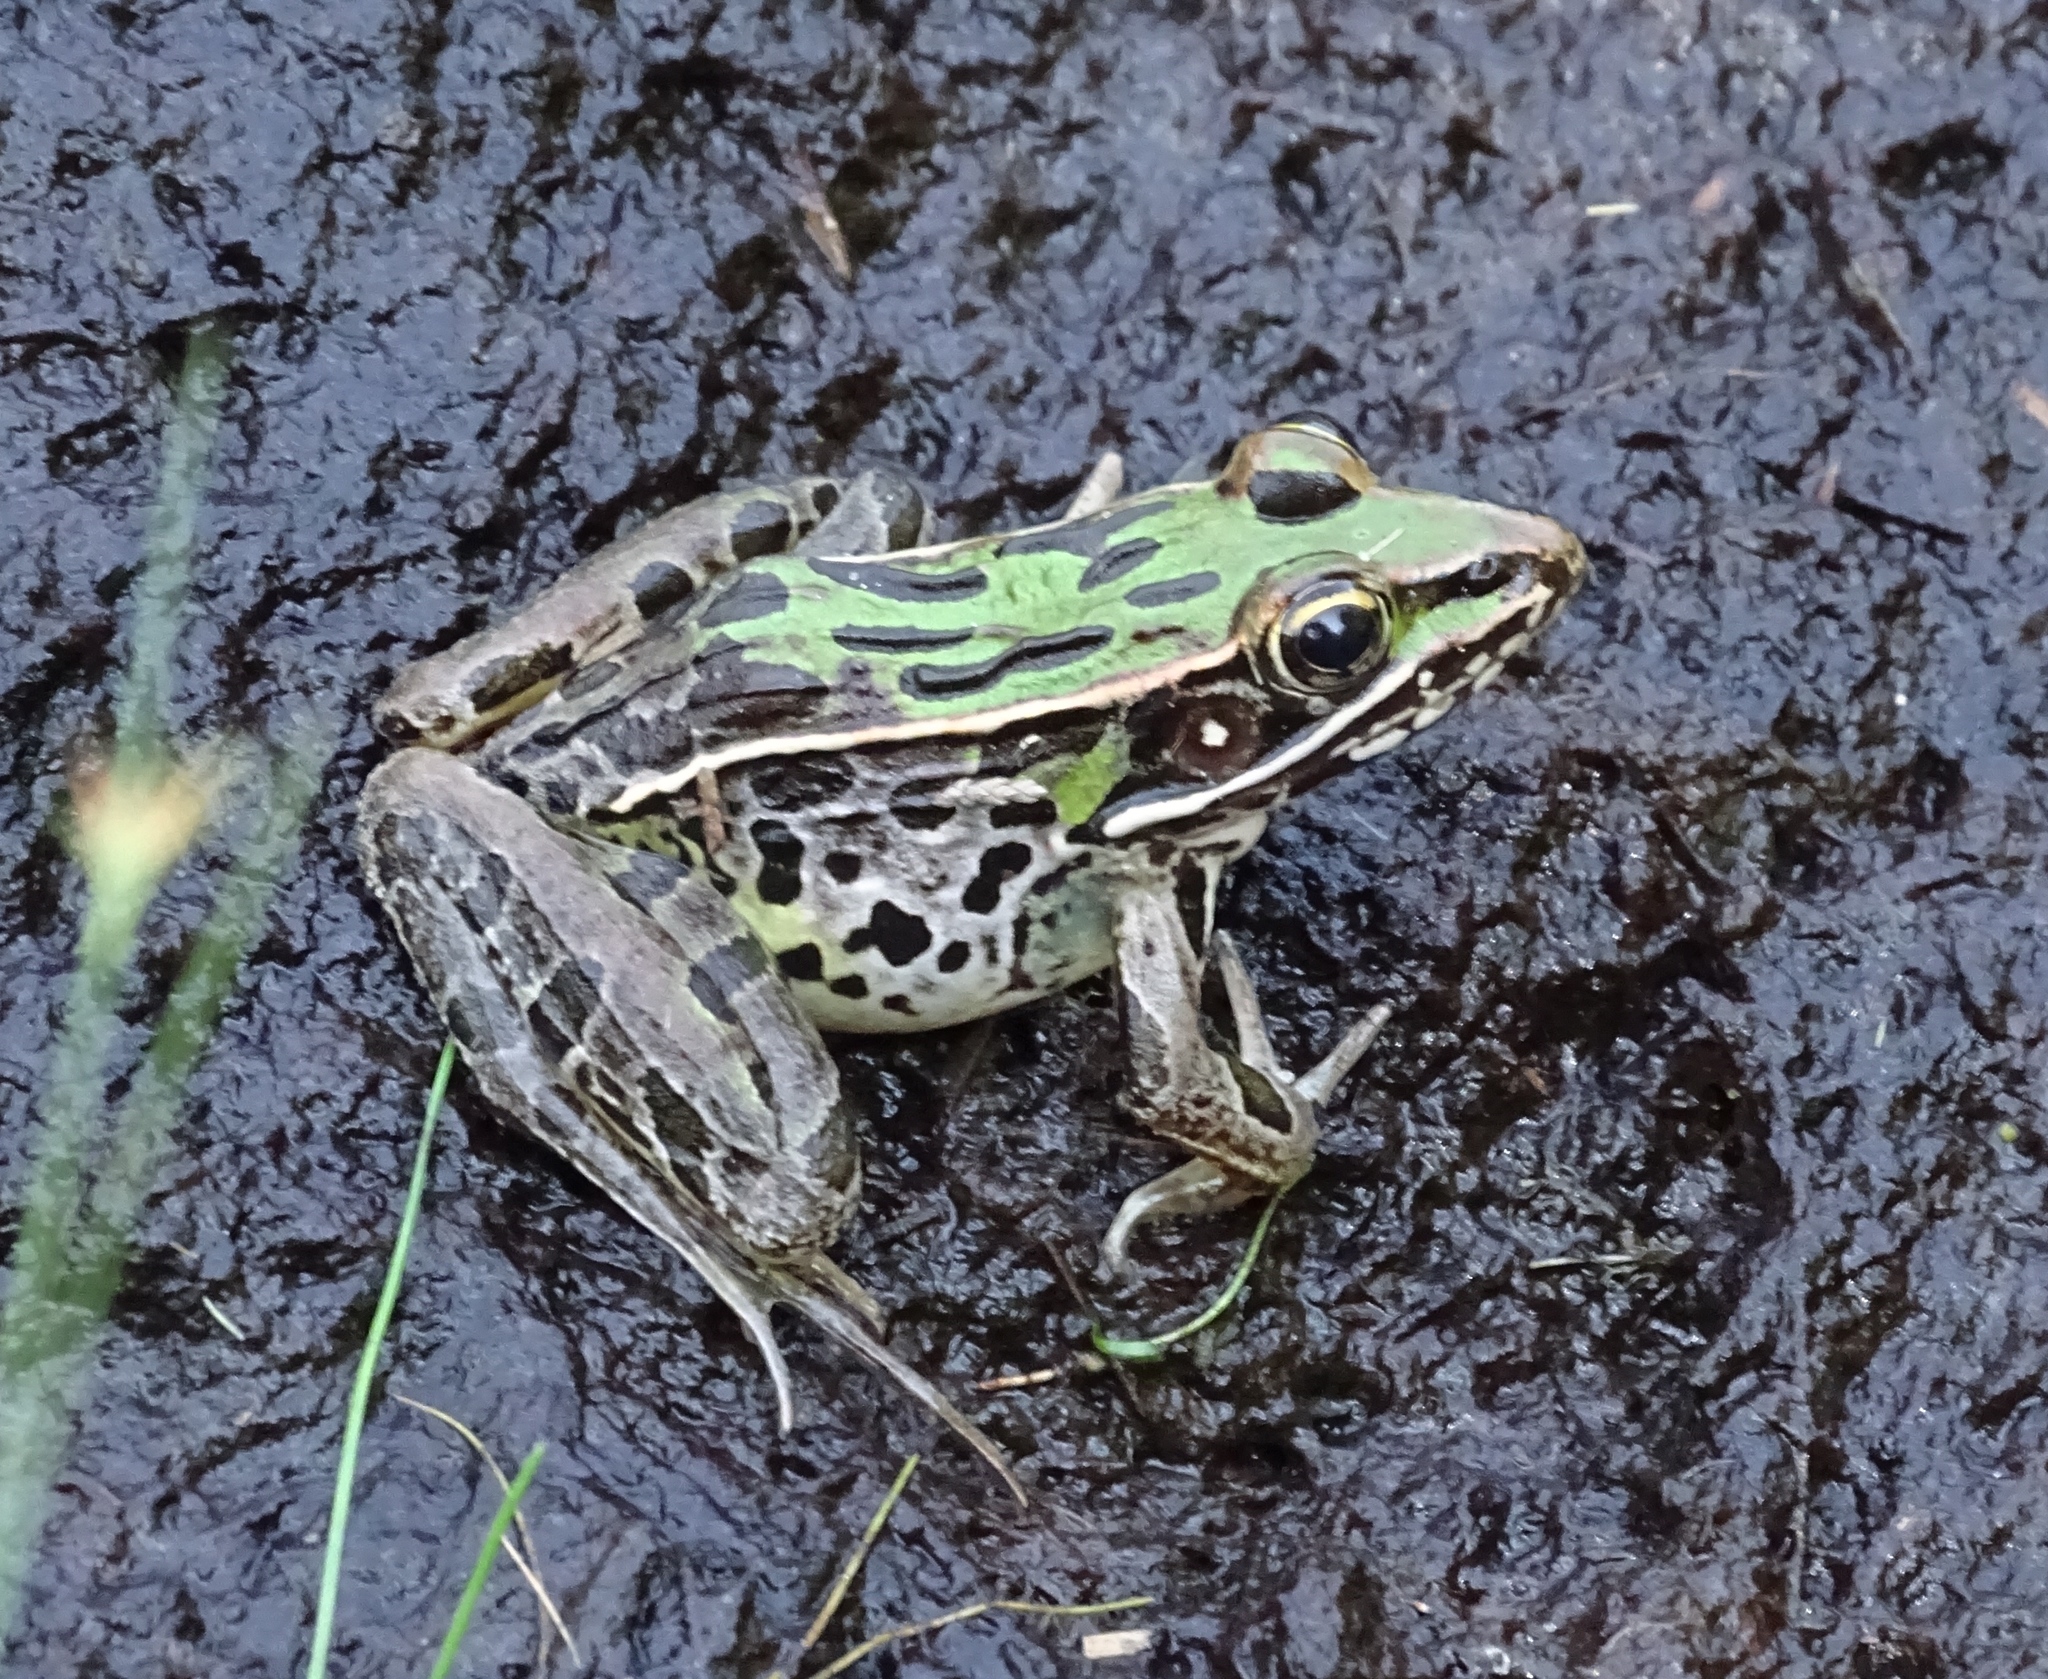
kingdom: Animalia
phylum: Chordata
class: Amphibia
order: Anura
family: Ranidae
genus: Lithobates
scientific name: Lithobates sphenocephalus
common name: Southern leopard frog
